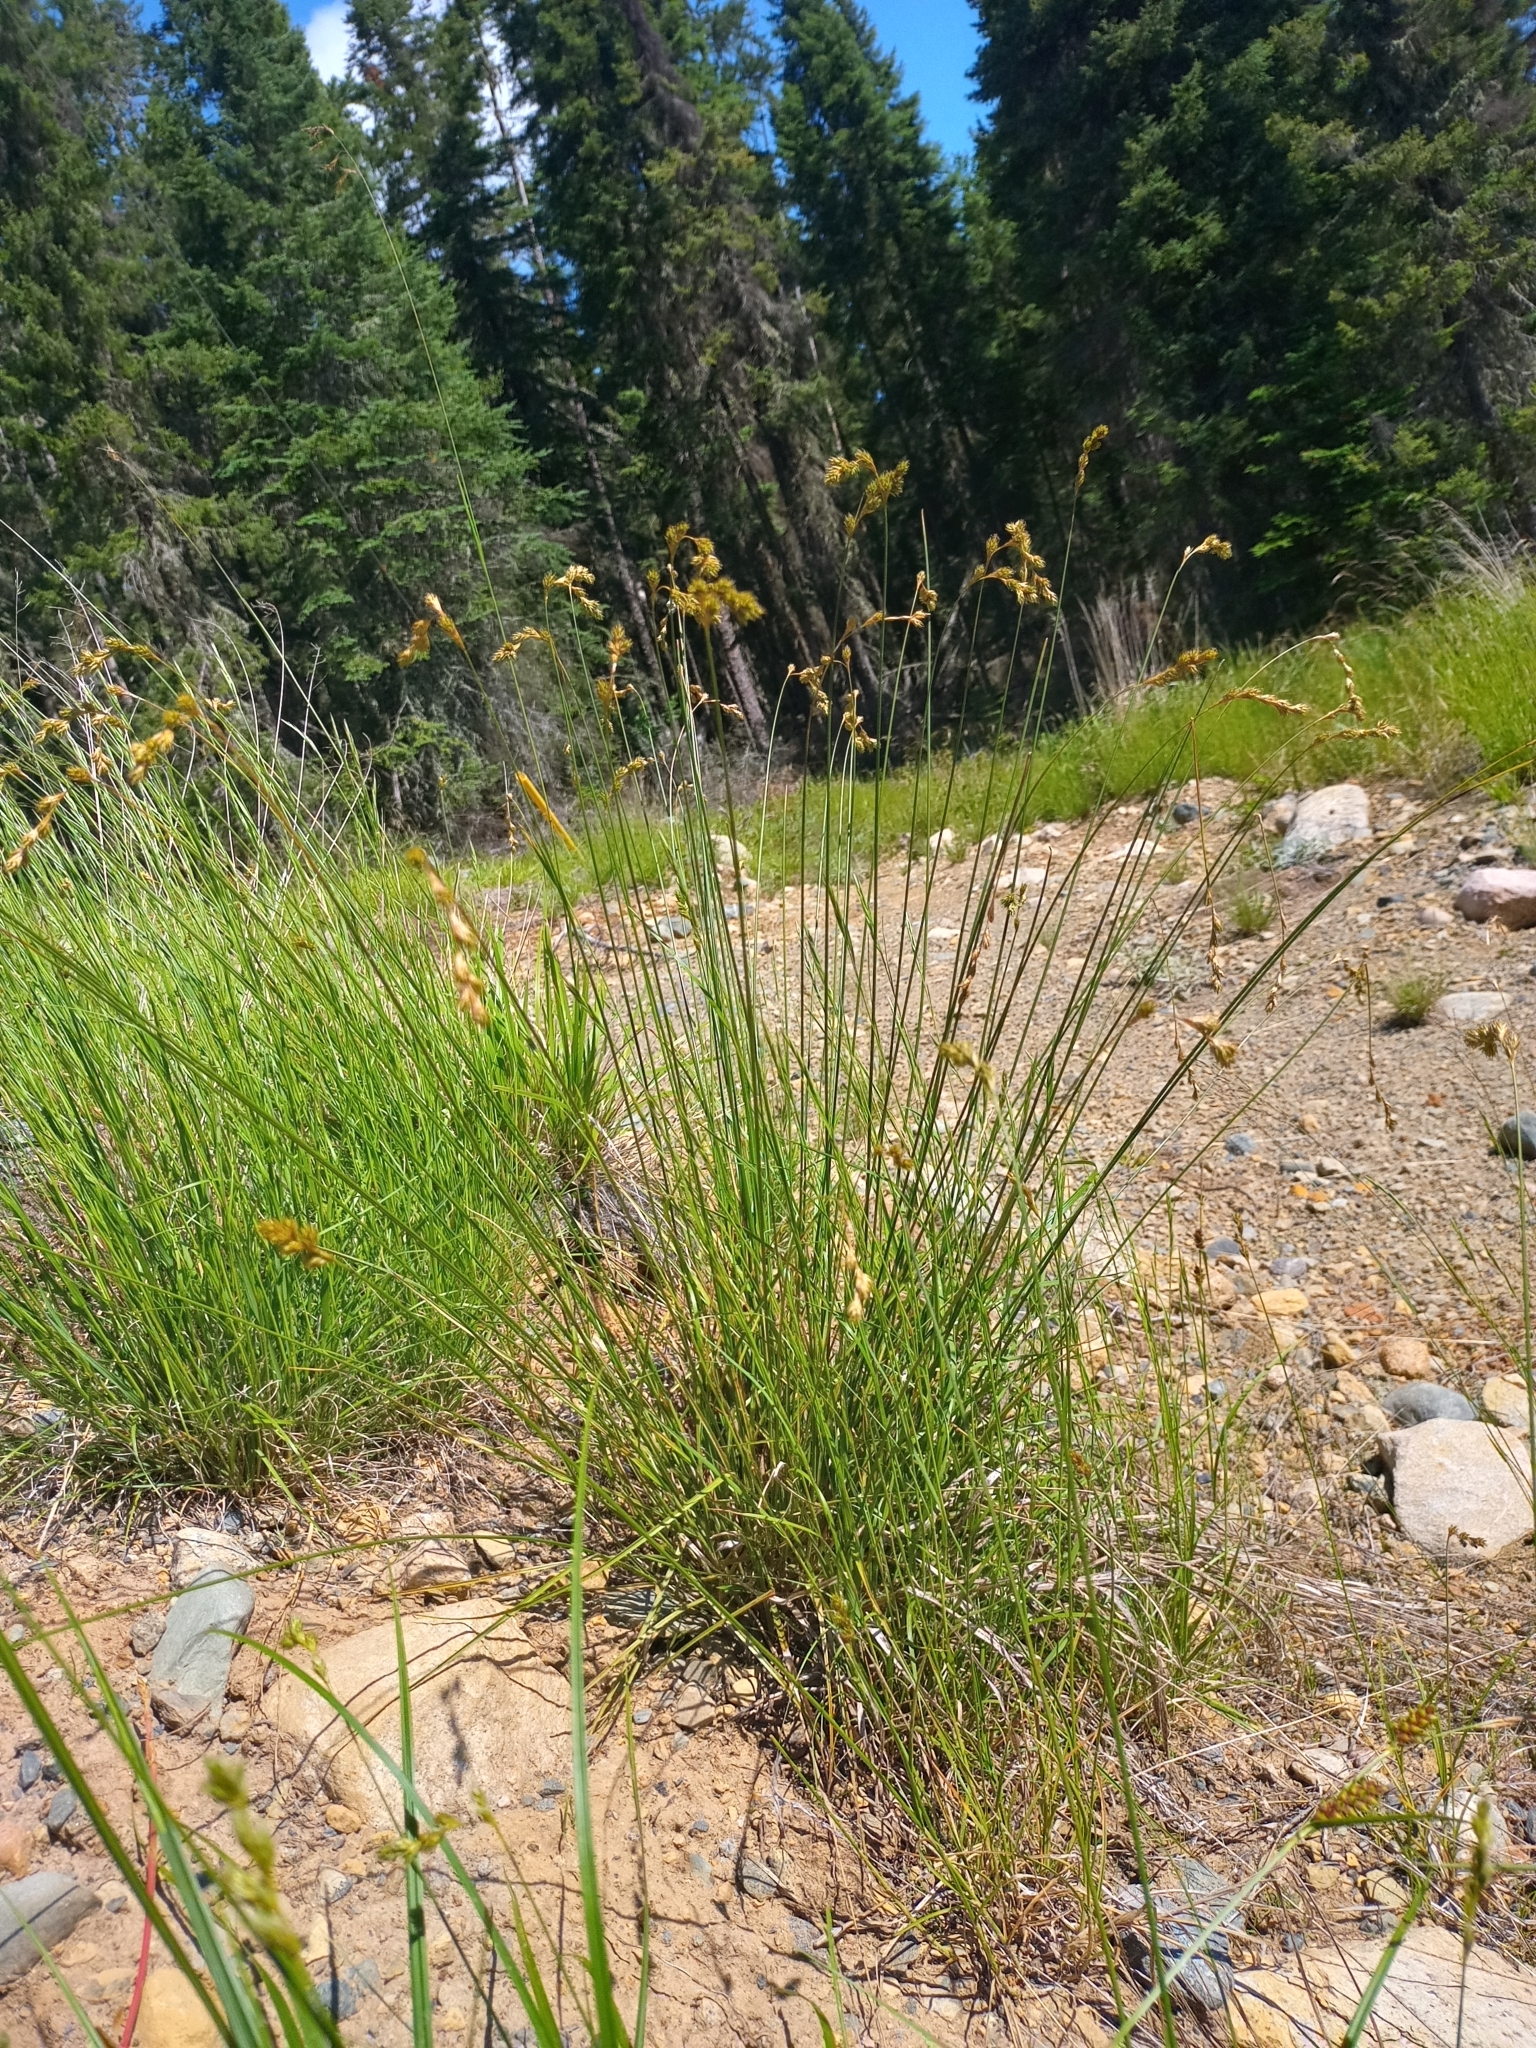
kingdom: Plantae
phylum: Tracheophyta
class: Liliopsida
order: Poales
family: Cyperaceae
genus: Carex
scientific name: Carex foenea
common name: Bronze sedge
